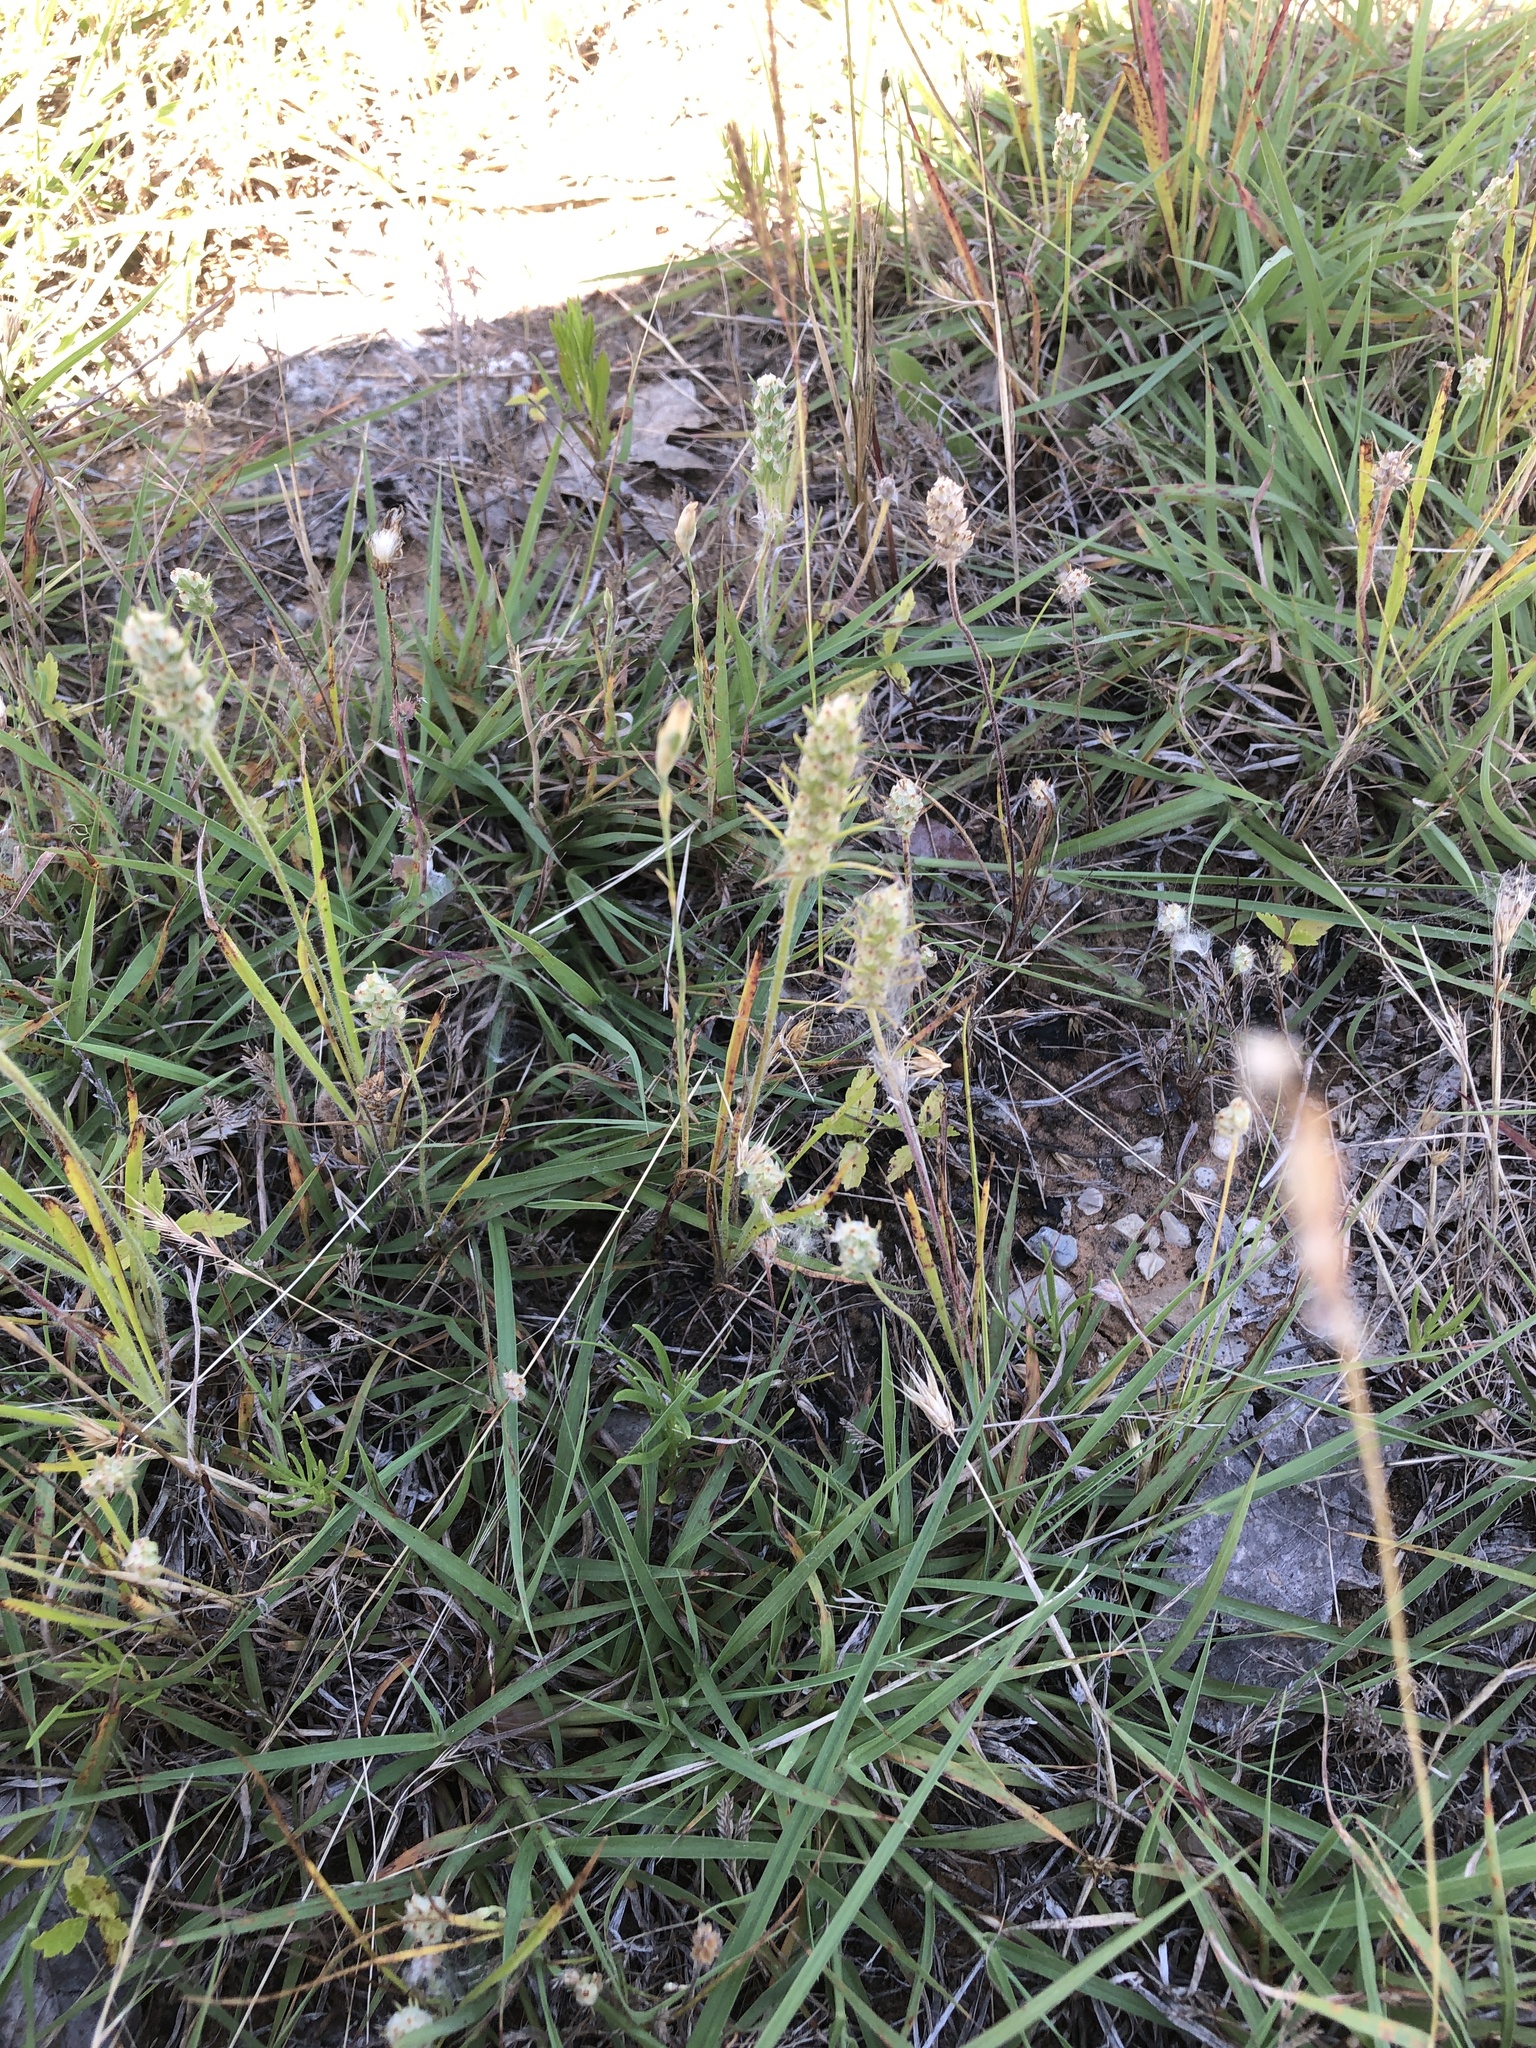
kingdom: Plantae
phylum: Tracheophyta
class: Magnoliopsida
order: Lamiales
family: Plantaginaceae
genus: Plantago
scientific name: Plantago aristata
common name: Bracted plantain
